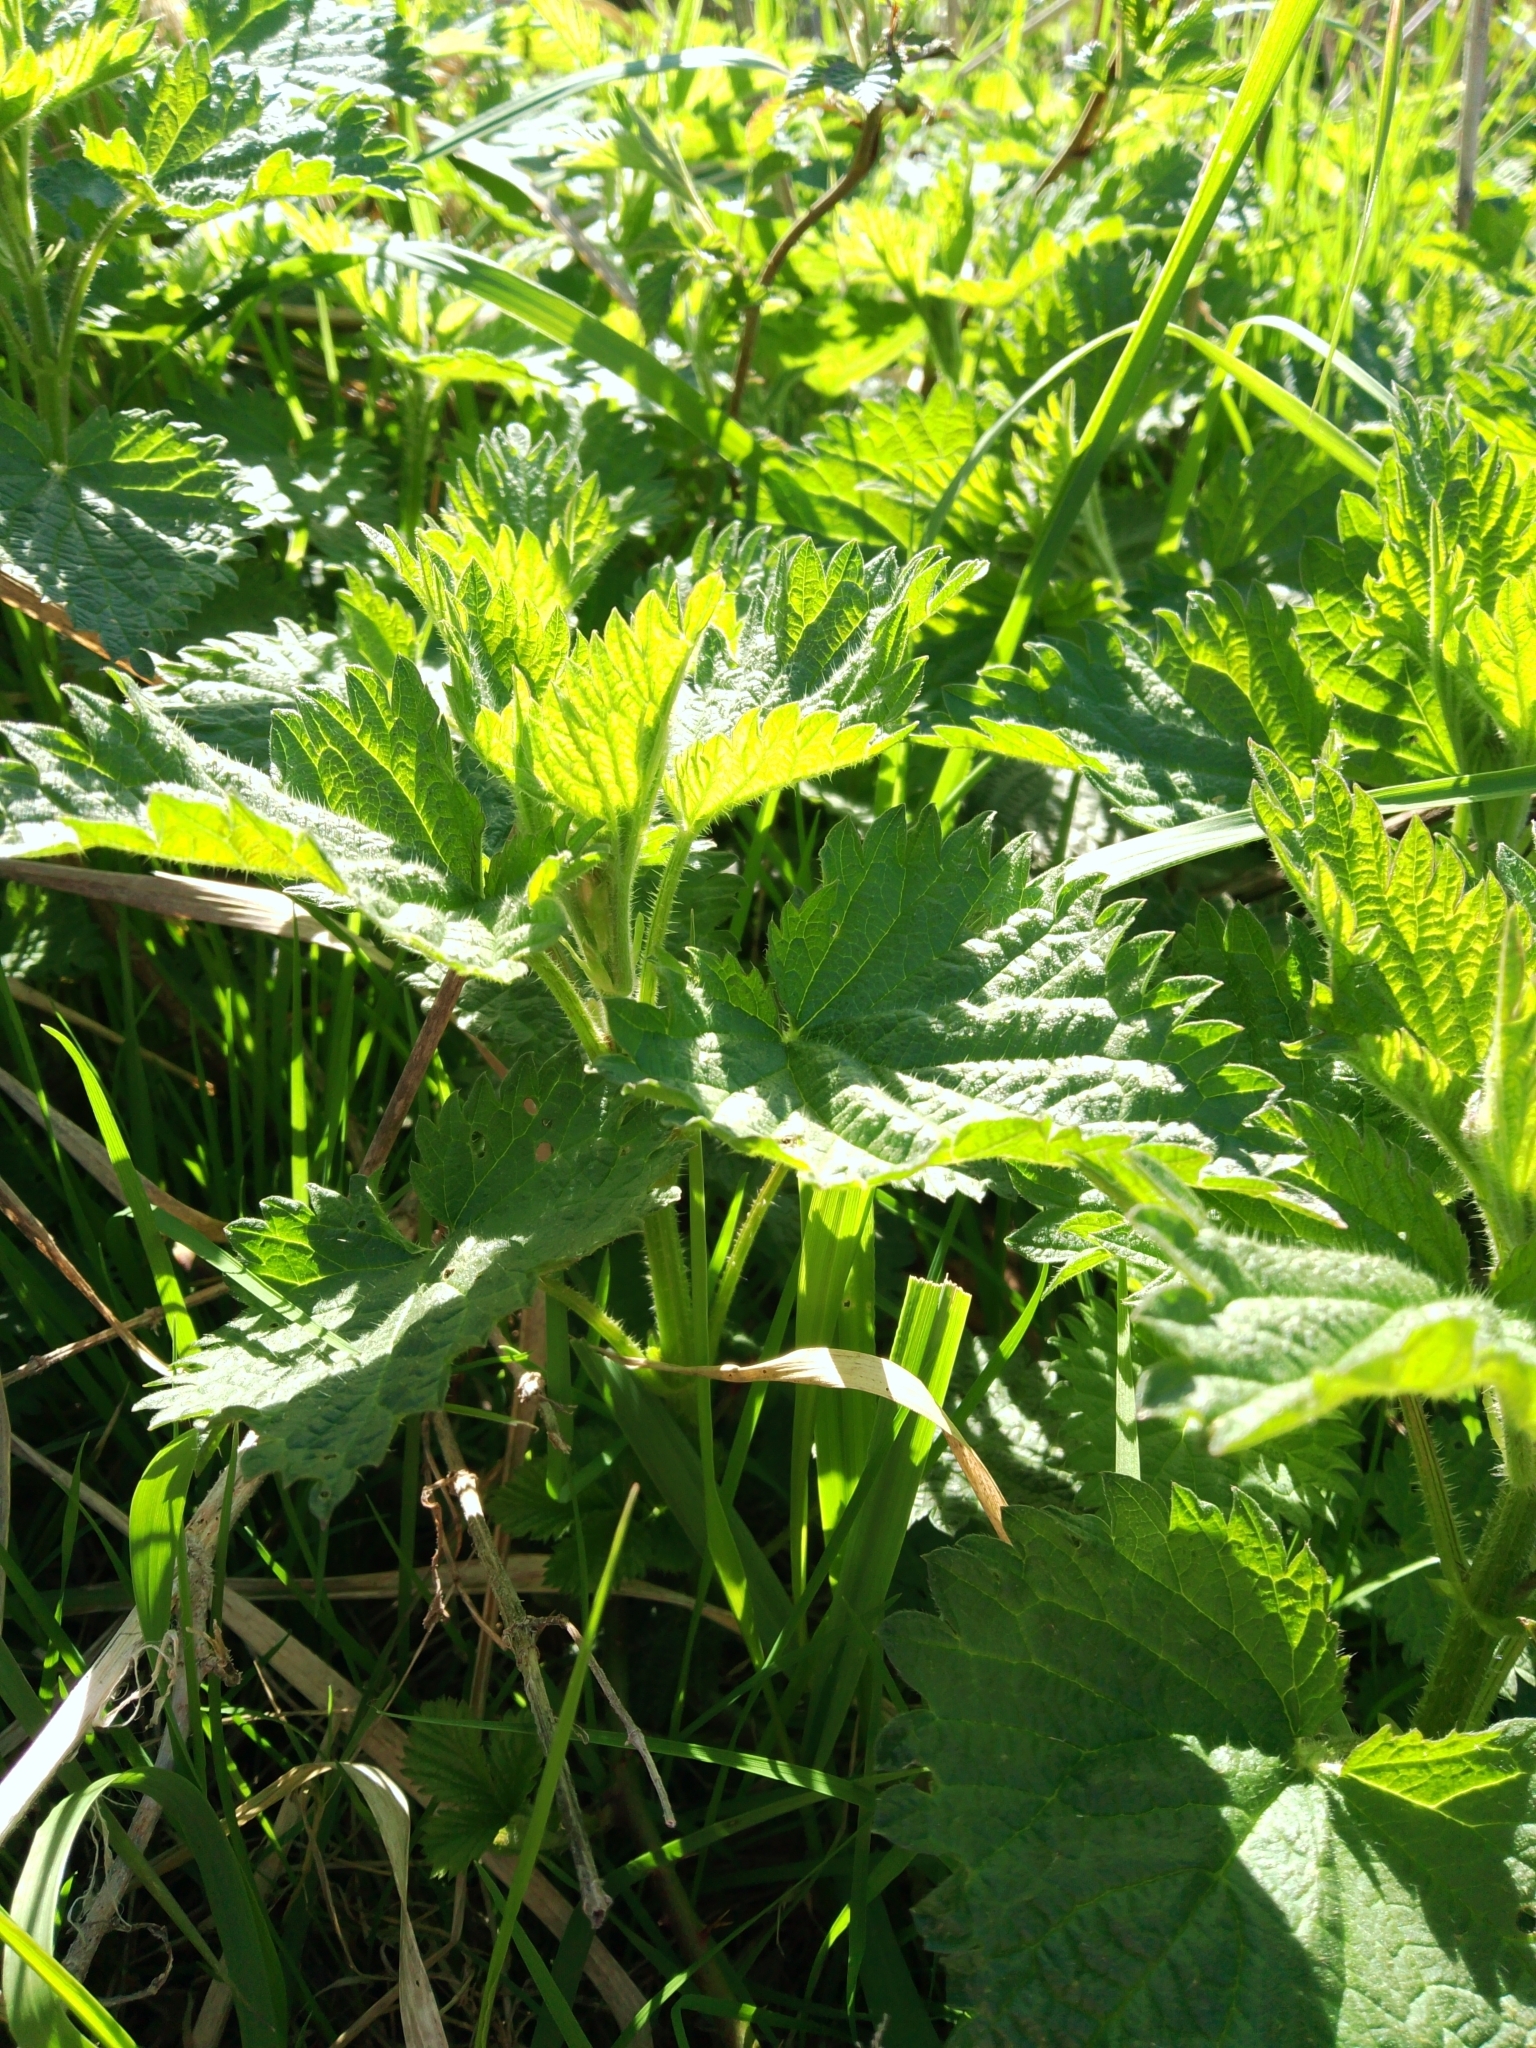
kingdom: Plantae
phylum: Tracheophyta
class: Magnoliopsida
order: Rosales
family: Urticaceae
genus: Urtica
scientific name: Urtica dioica
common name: Common nettle
